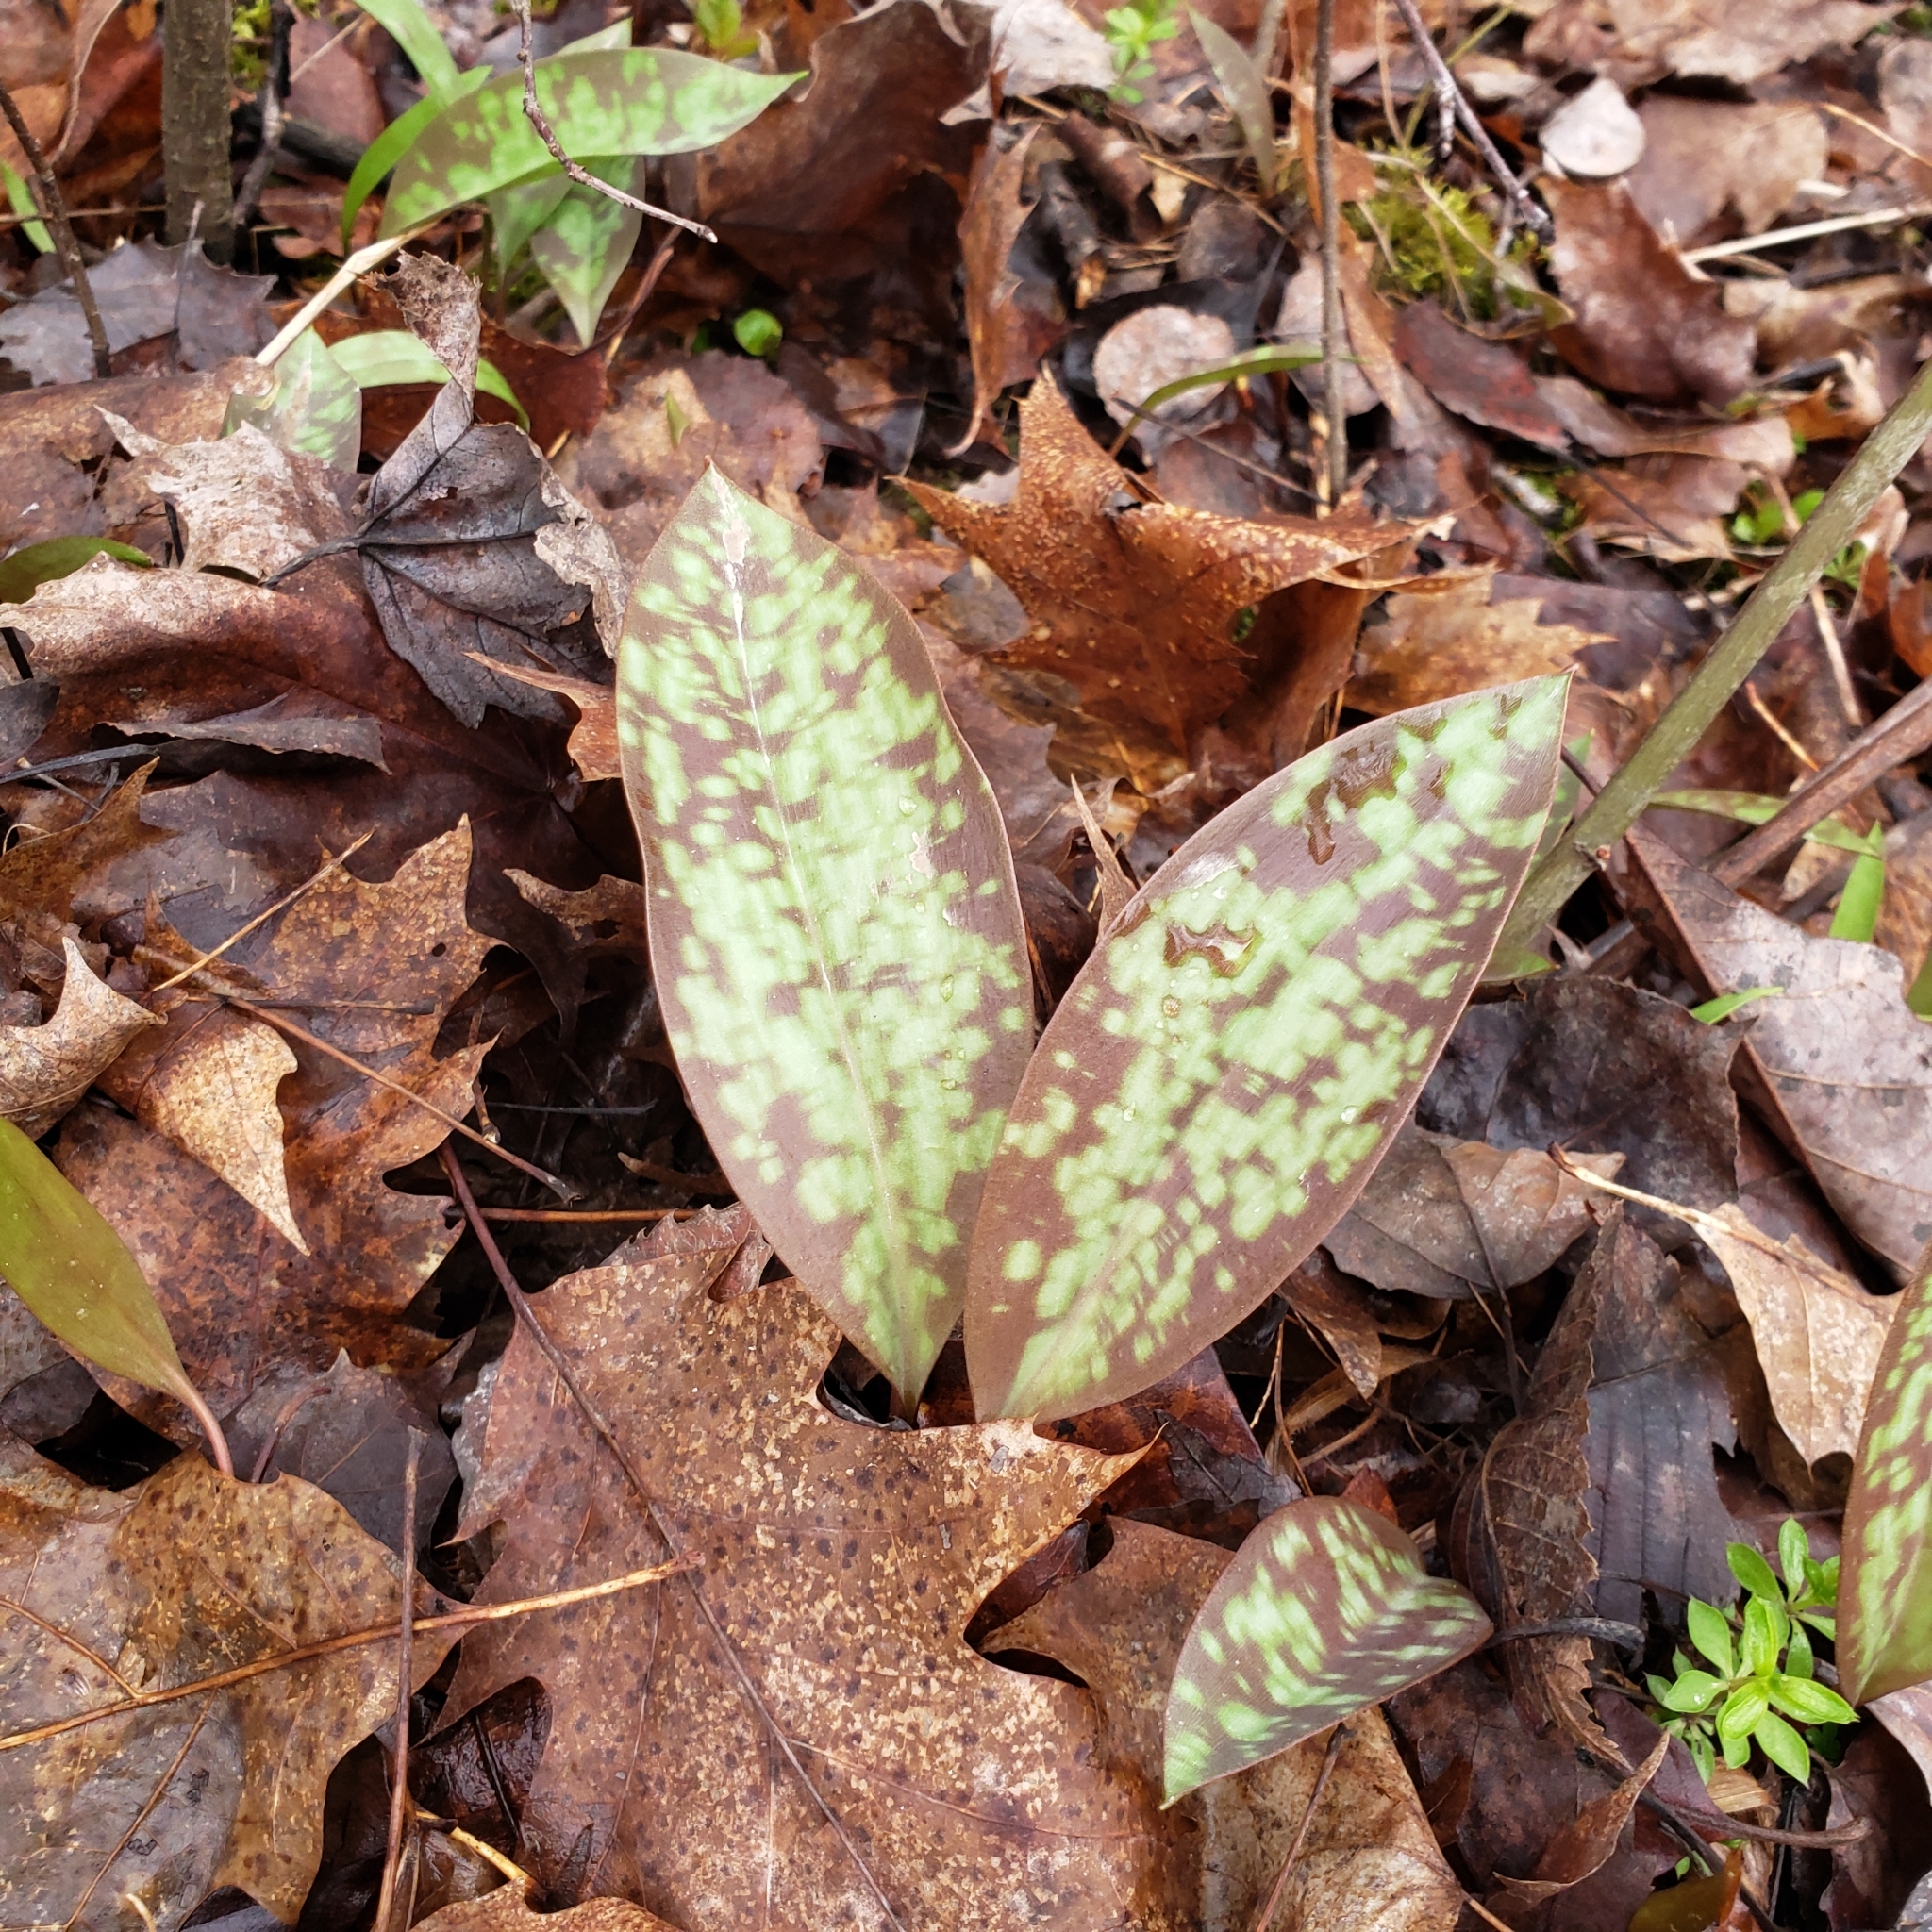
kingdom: Plantae
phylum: Tracheophyta
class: Liliopsida
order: Liliales
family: Liliaceae
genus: Erythronium
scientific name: Erythronium americanum
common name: Yellow adder's-tongue
